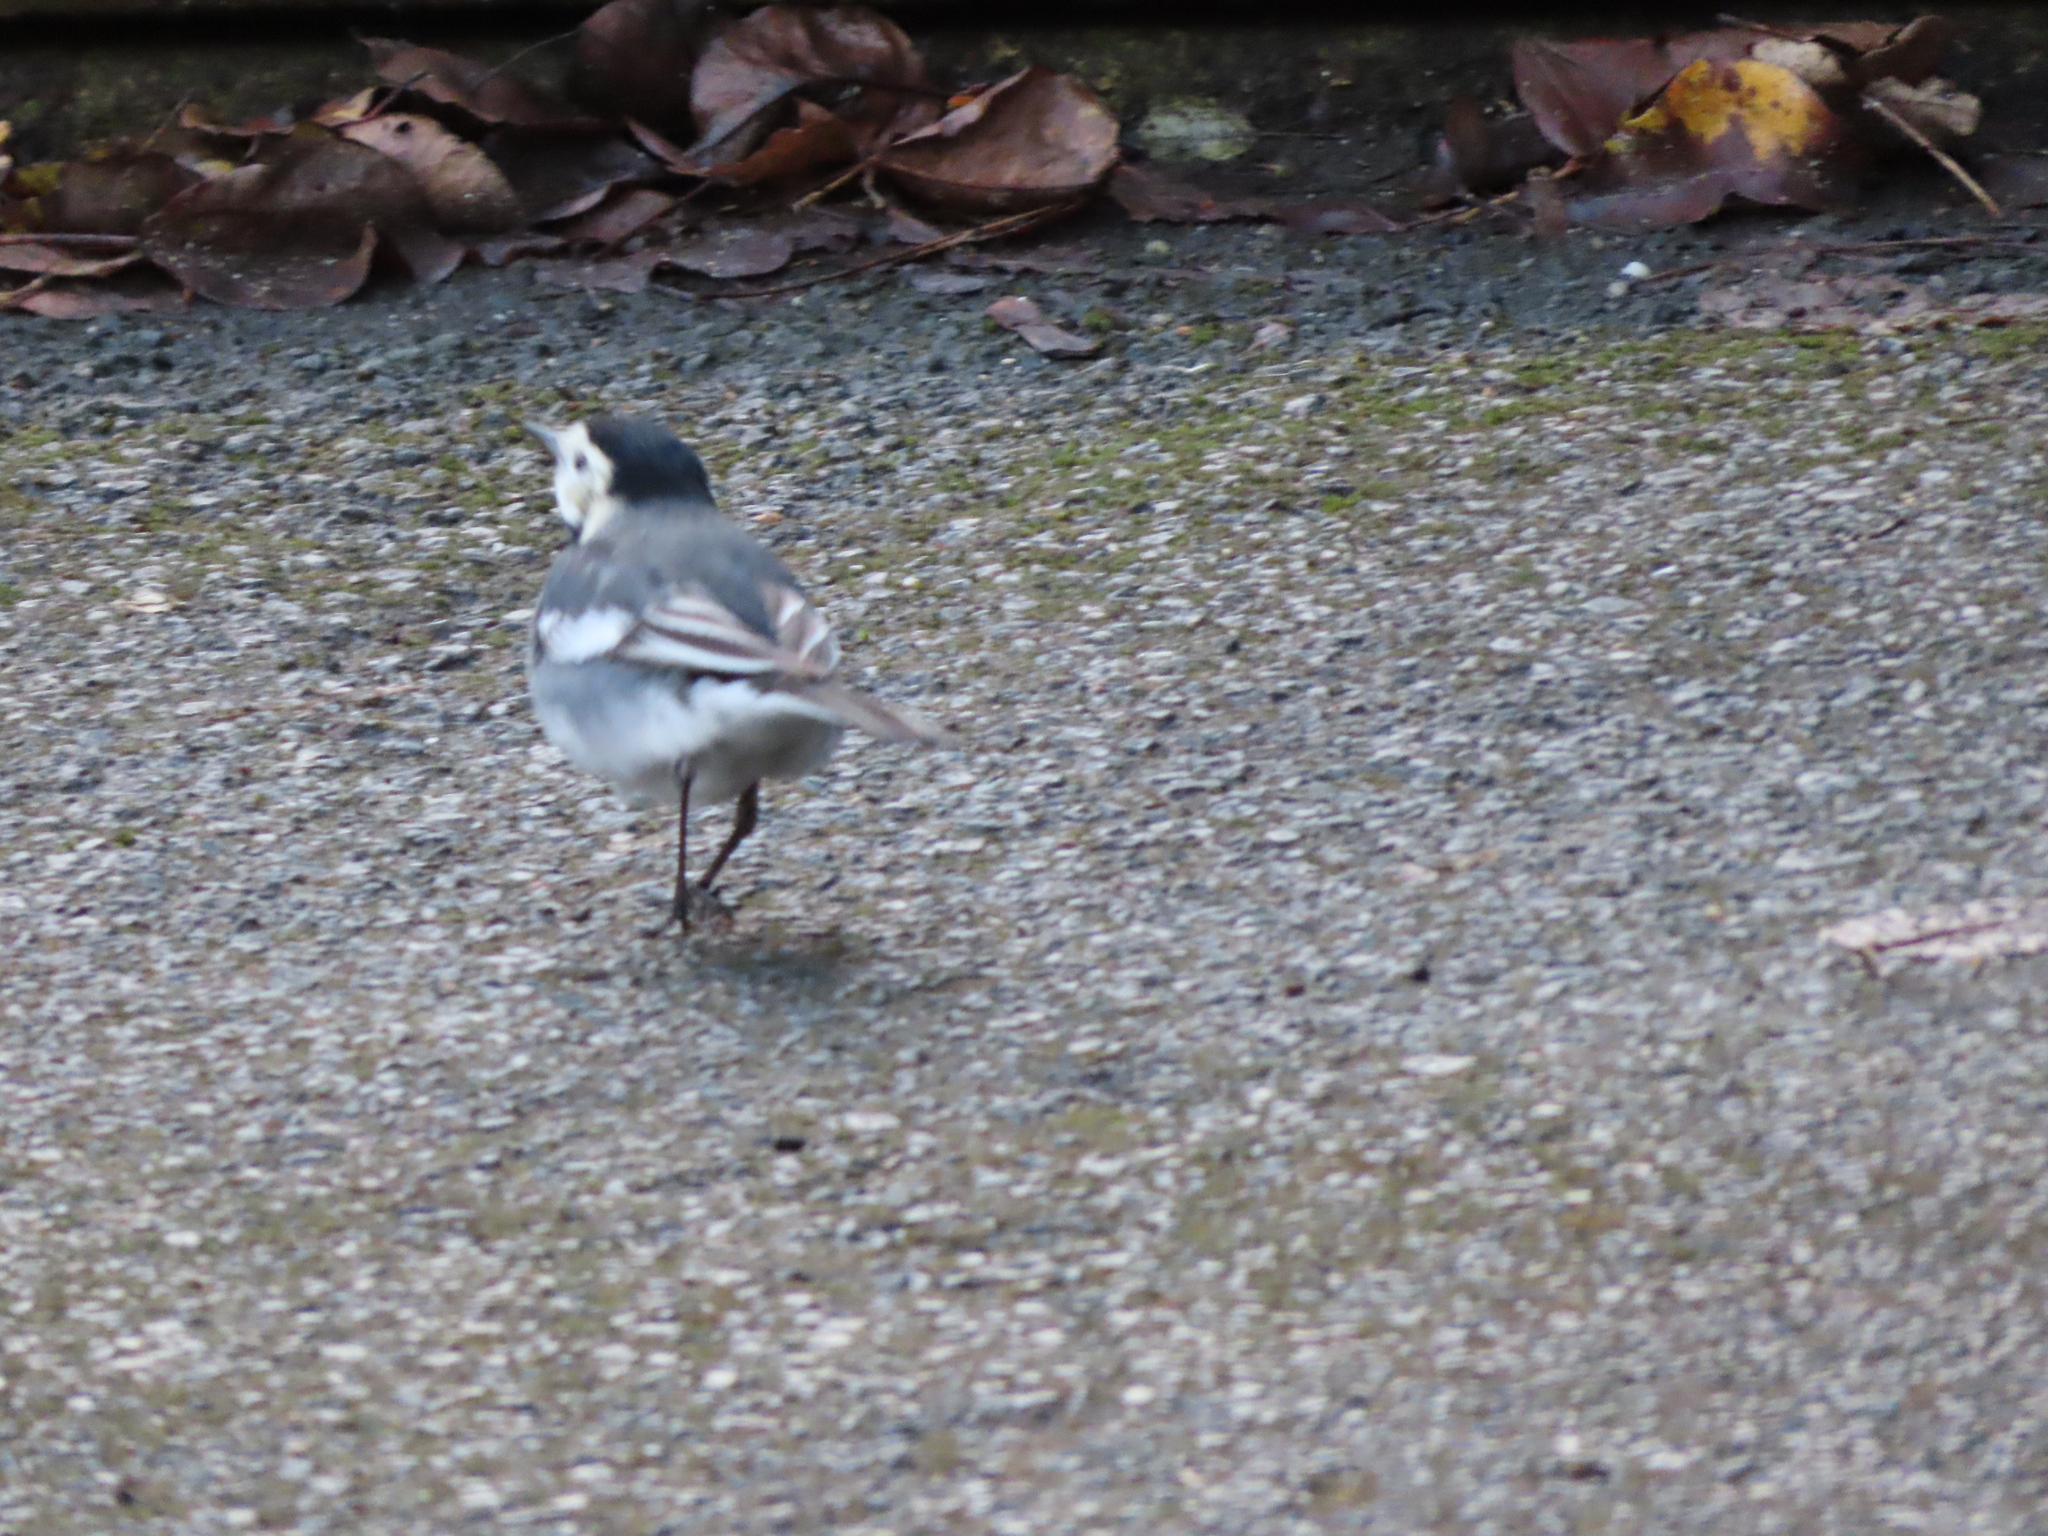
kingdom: Animalia
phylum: Chordata
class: Aves
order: Passeriformes
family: Motacillidae
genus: Motacilla
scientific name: Motacilla alba
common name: White wagtail
